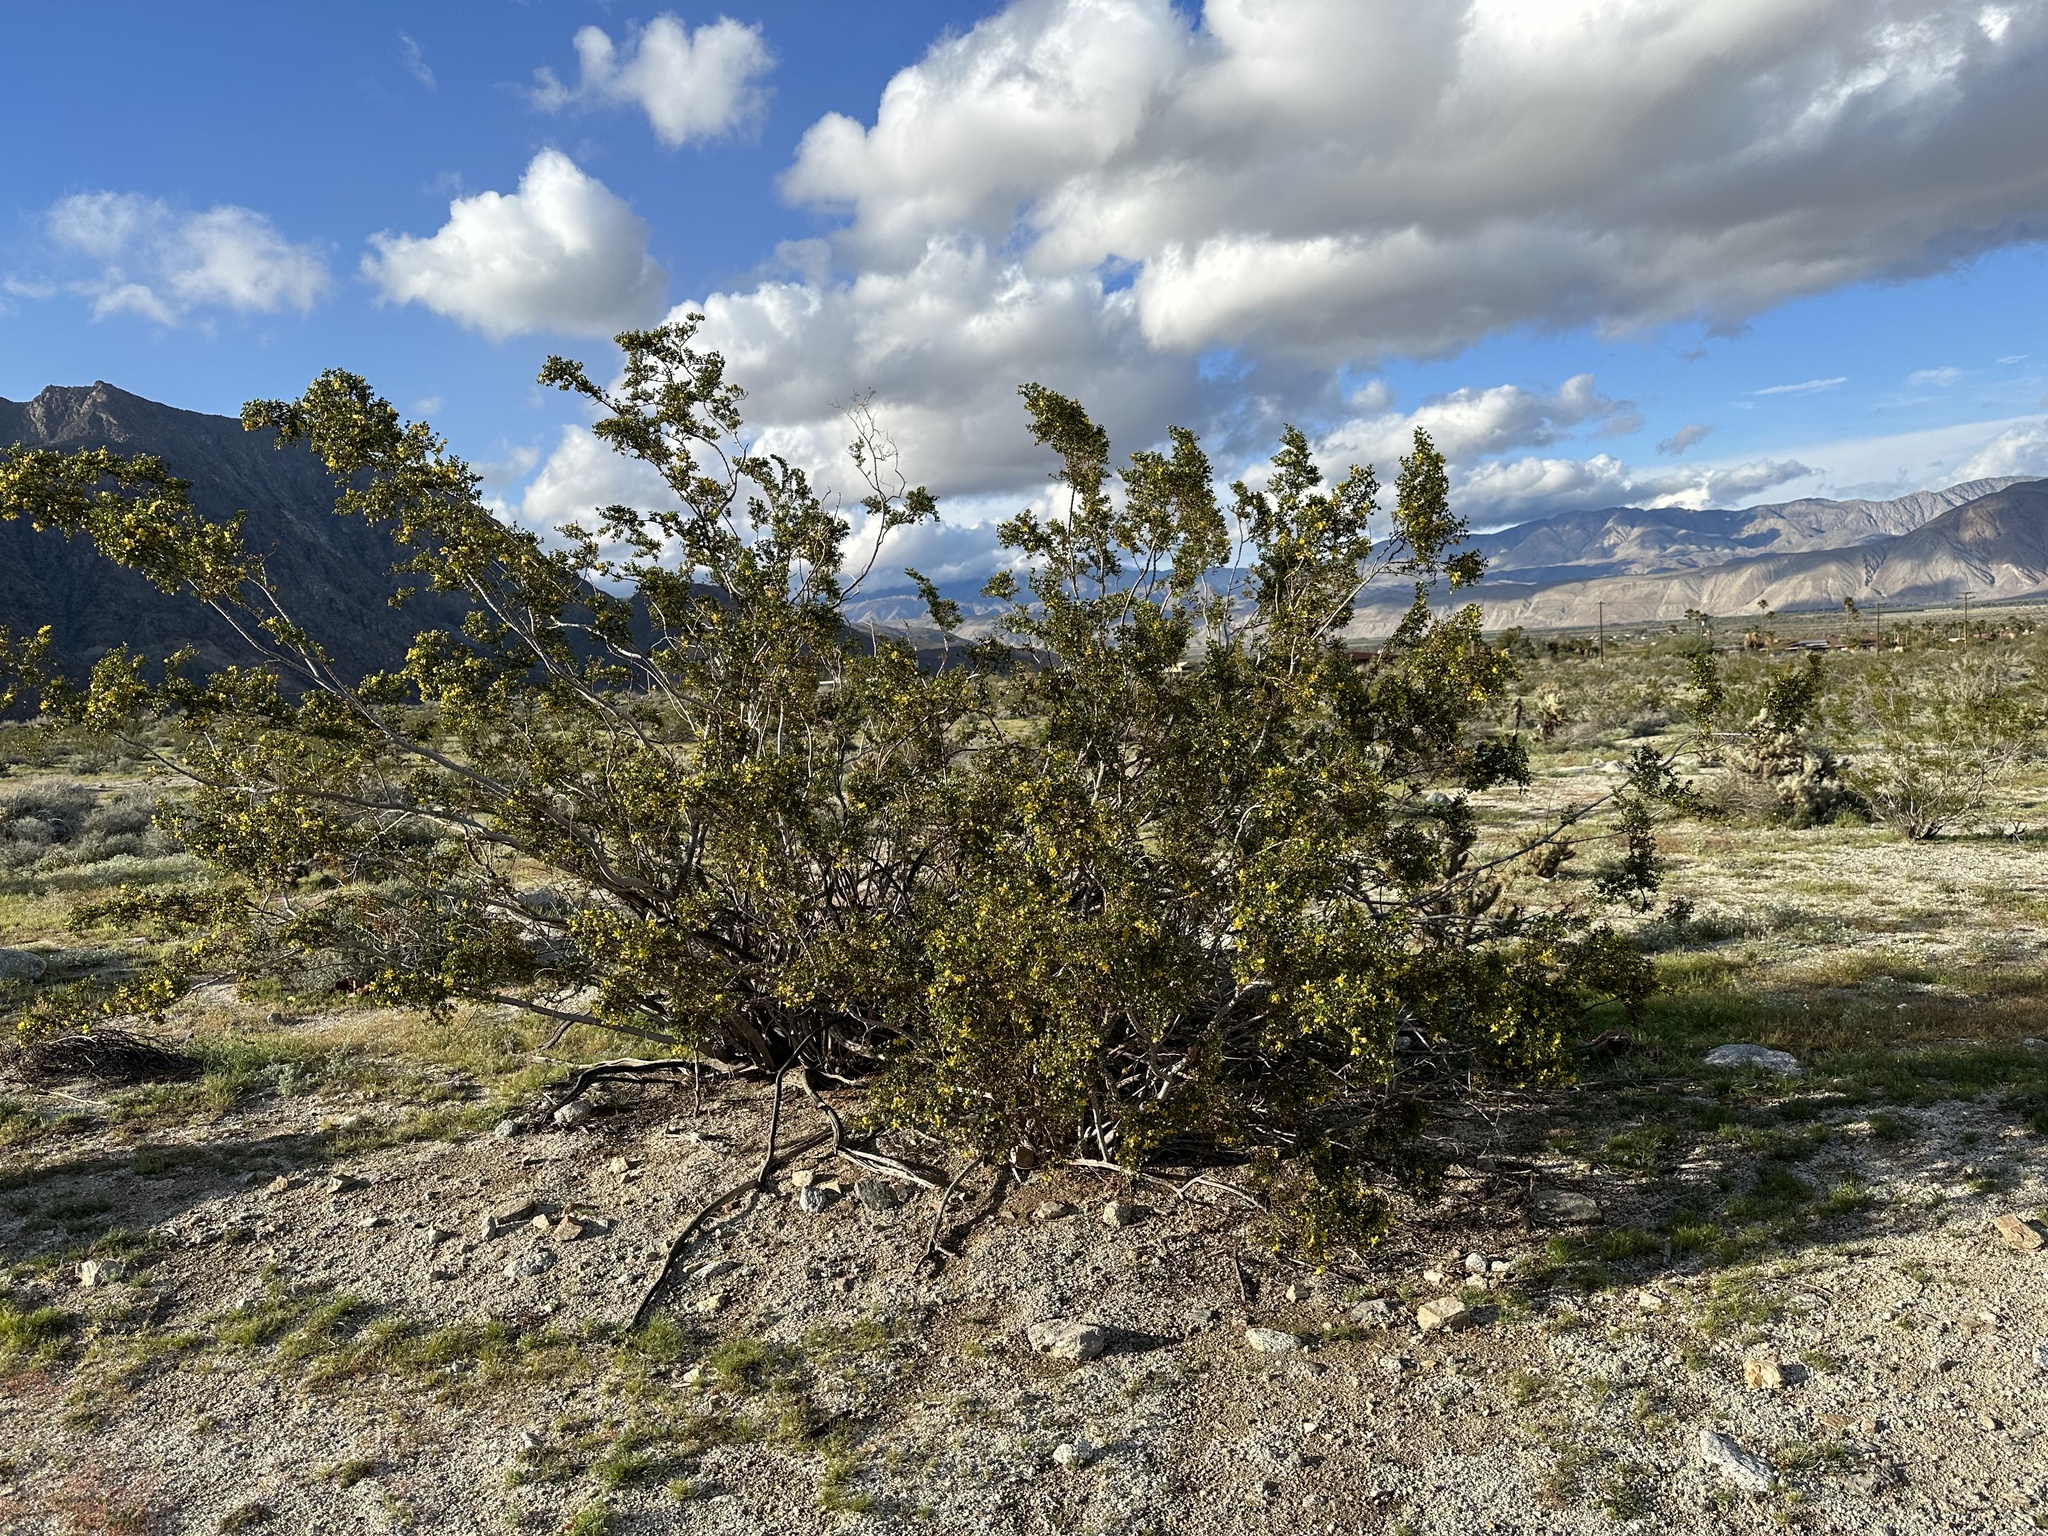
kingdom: Plantae
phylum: Tracheophyta
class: Magnoliopsida
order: Zygophyllales
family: Zygophyllaceae
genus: Larrea
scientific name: Larrea tridentata
